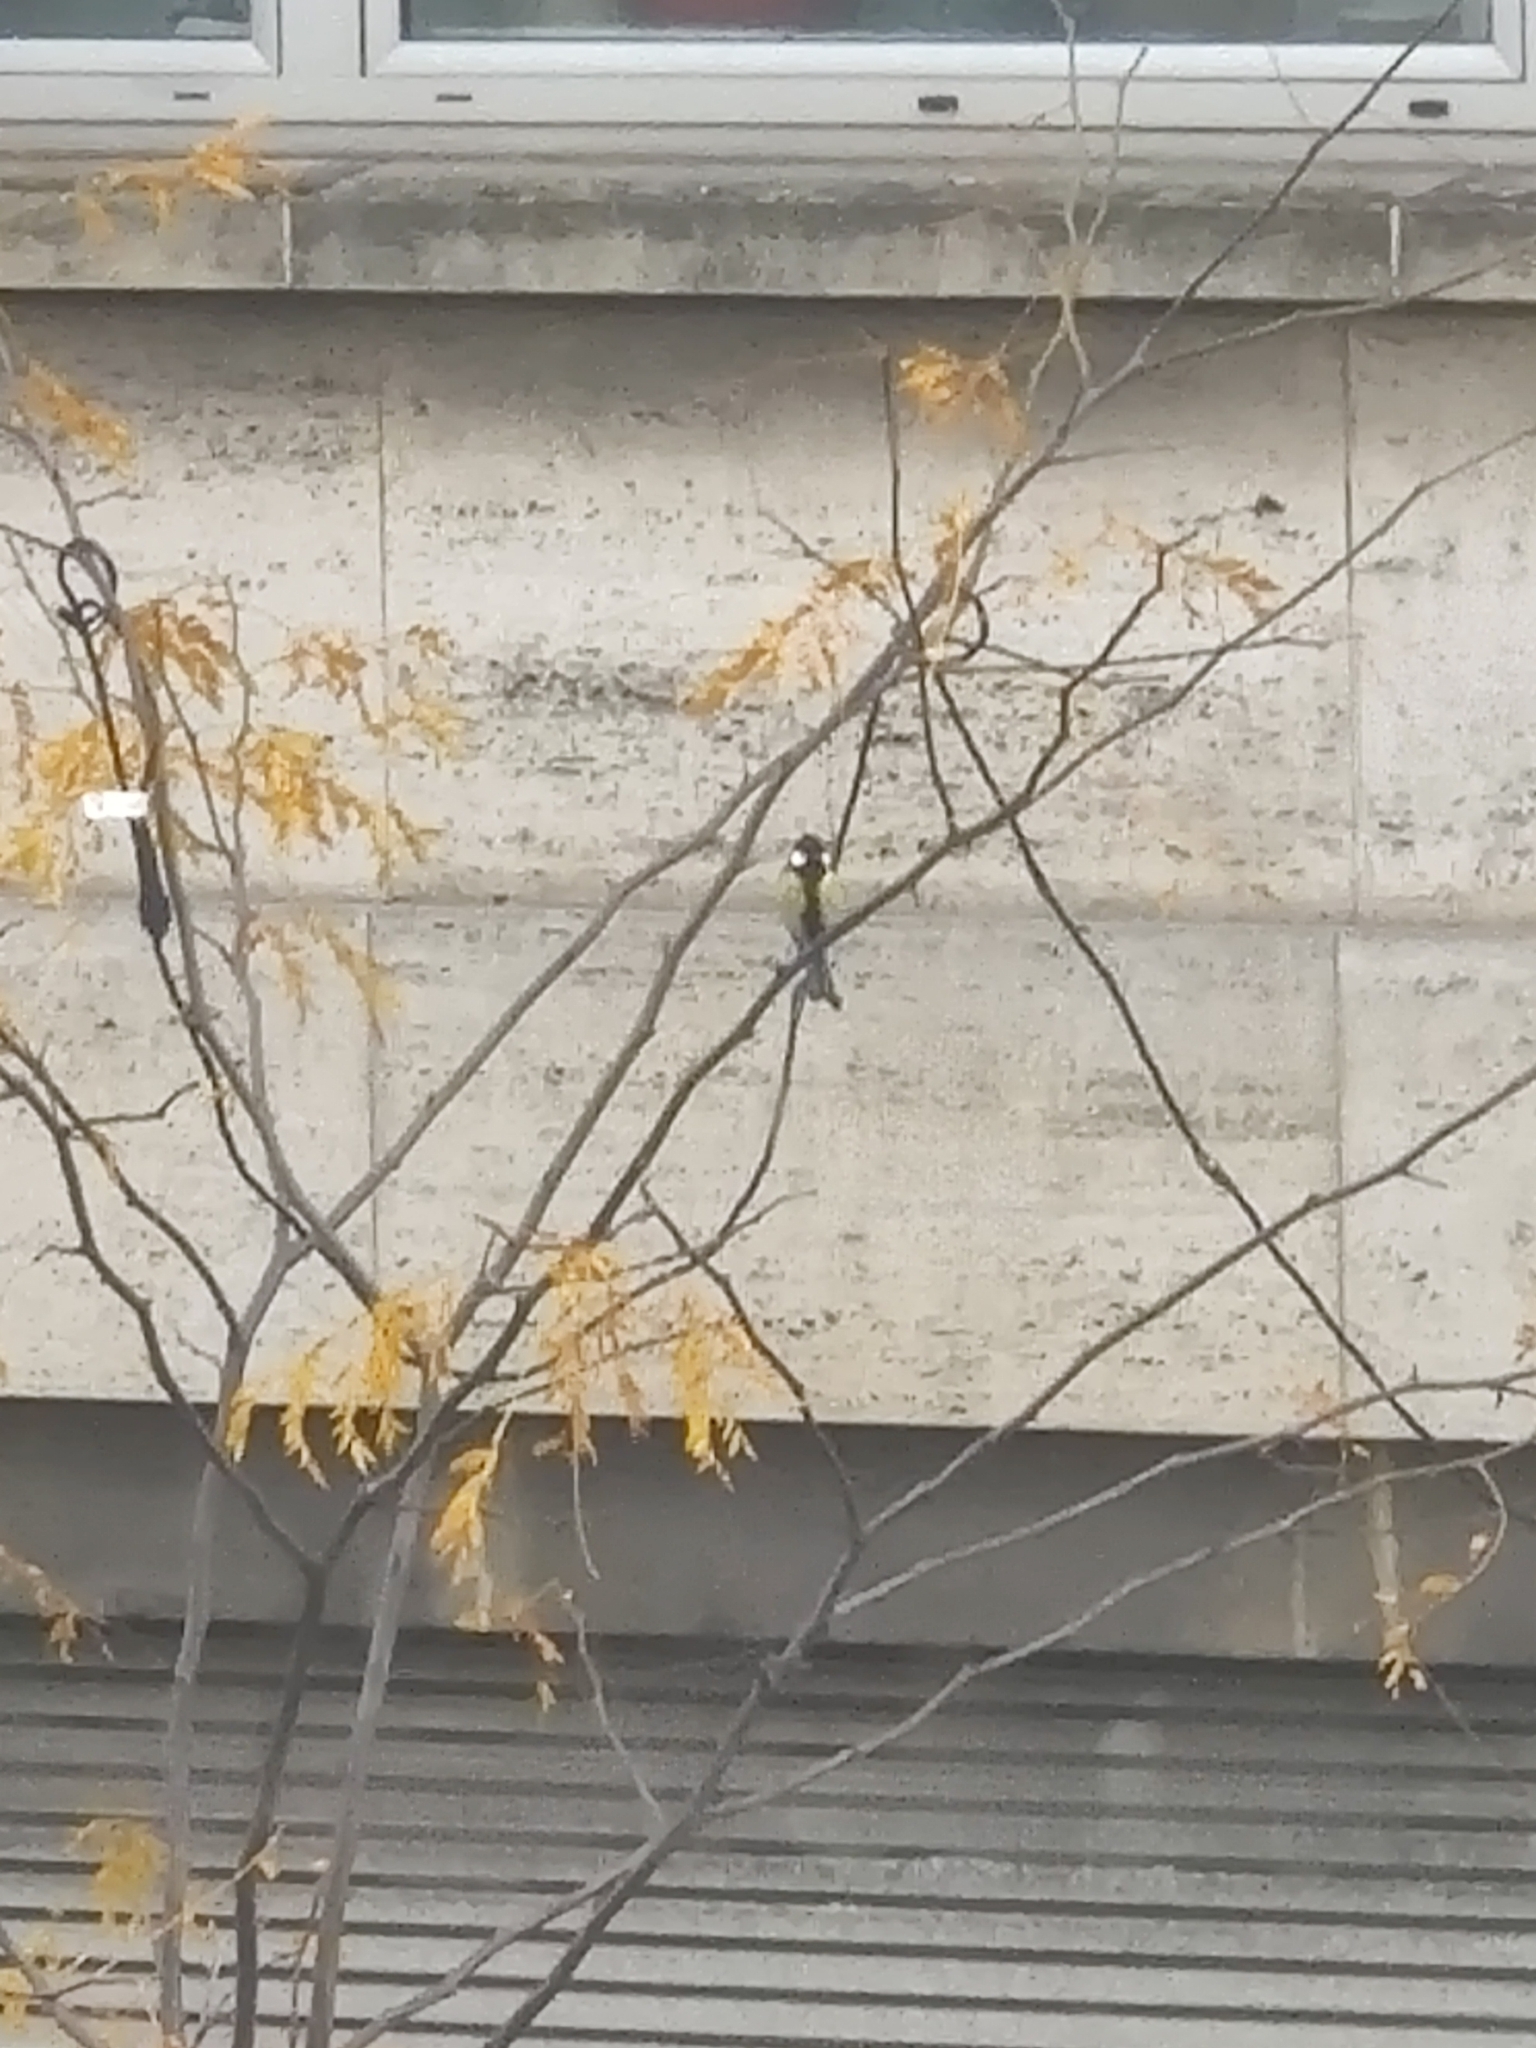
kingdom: Animalia
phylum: Chordata
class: Aves
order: Passeriformes
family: Paridae
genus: Parus
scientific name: Parus major
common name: Great tit
